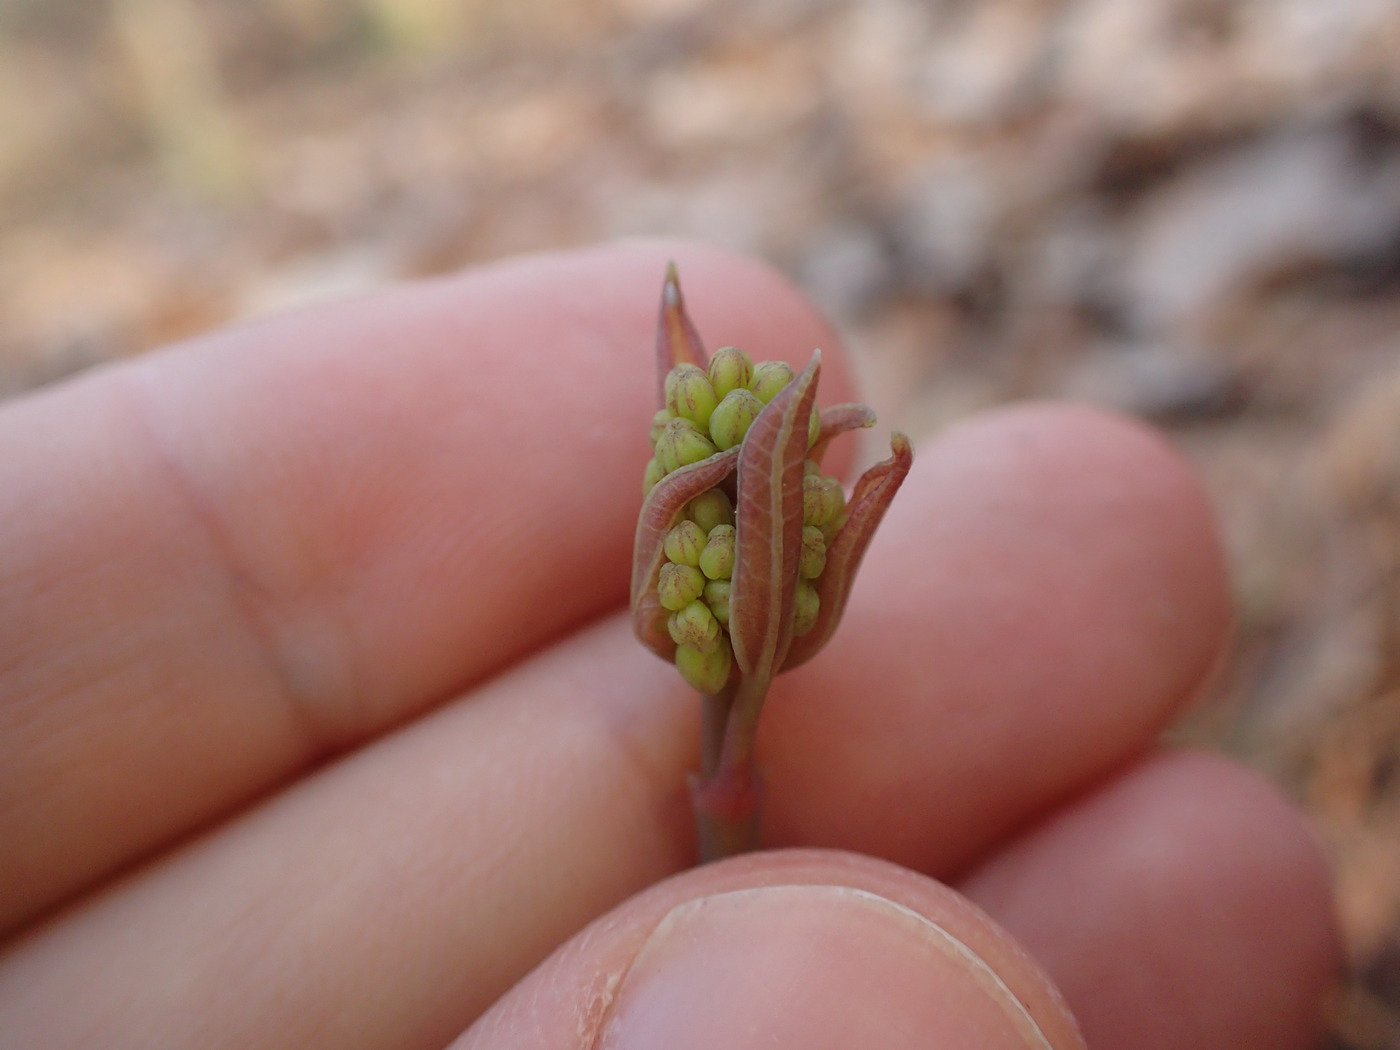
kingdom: Plantae
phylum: Tracheophyta
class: Liliopsida
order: Liliales
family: Smilacaceae
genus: Smilax
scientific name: Smilax biltmoreana
